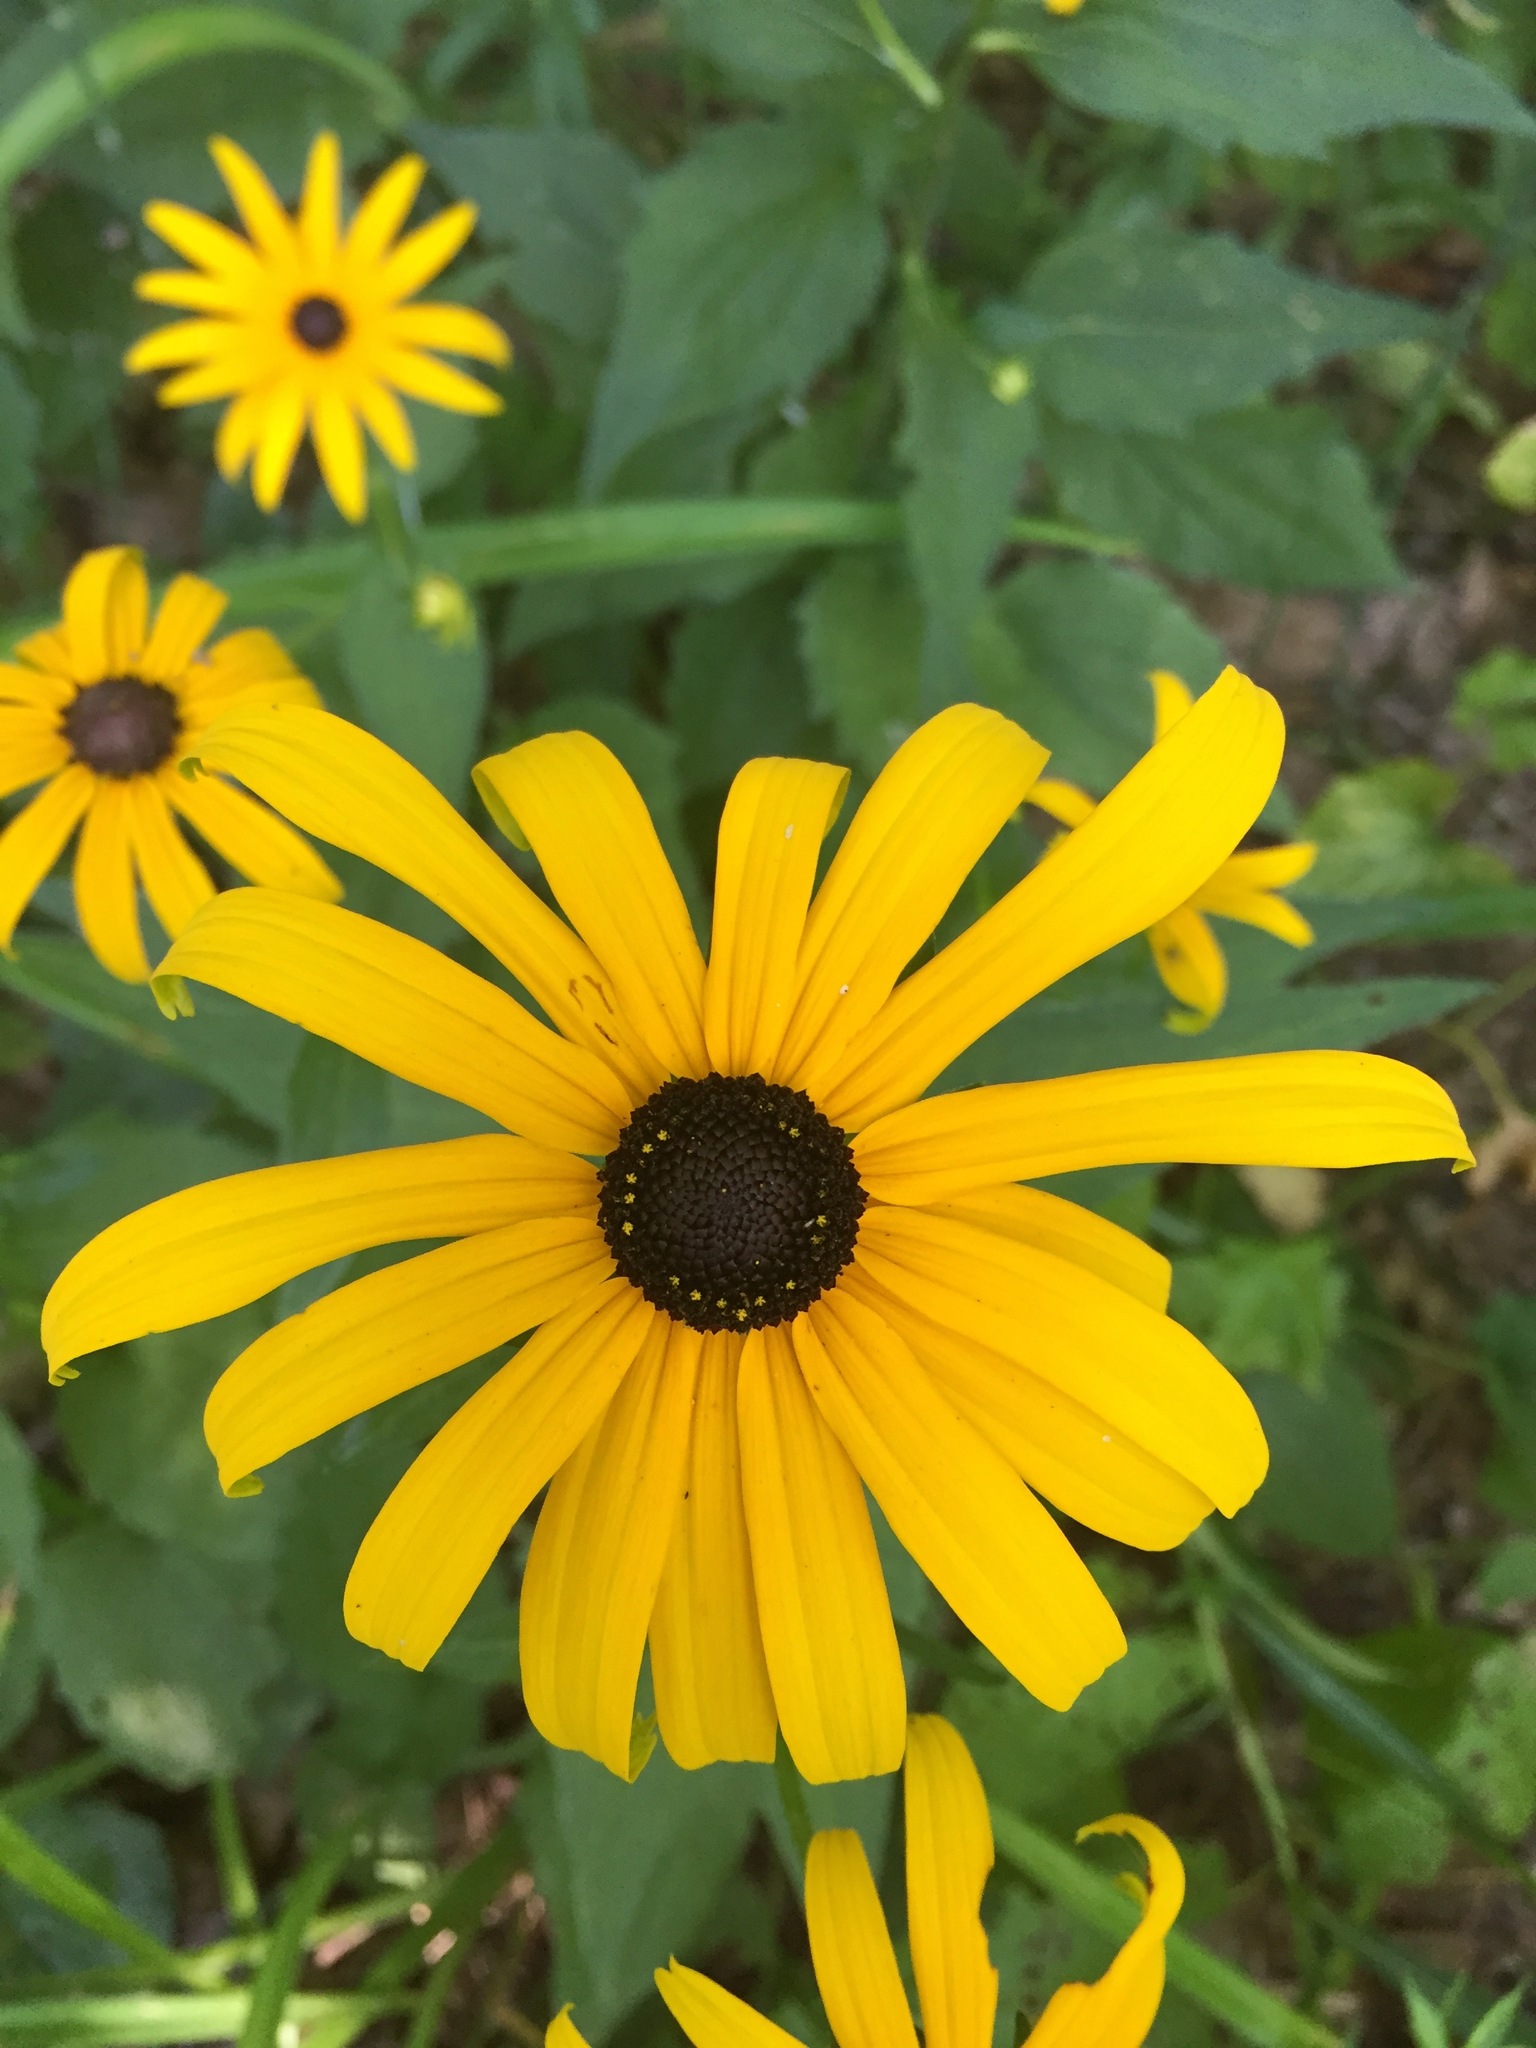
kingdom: Plantae
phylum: Tracheophyta
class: Magnoliopsida
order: Asterales
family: Asteraceae
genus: Rudbeckia
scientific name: Rudbeckia hirta
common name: Black-eyed-susan
